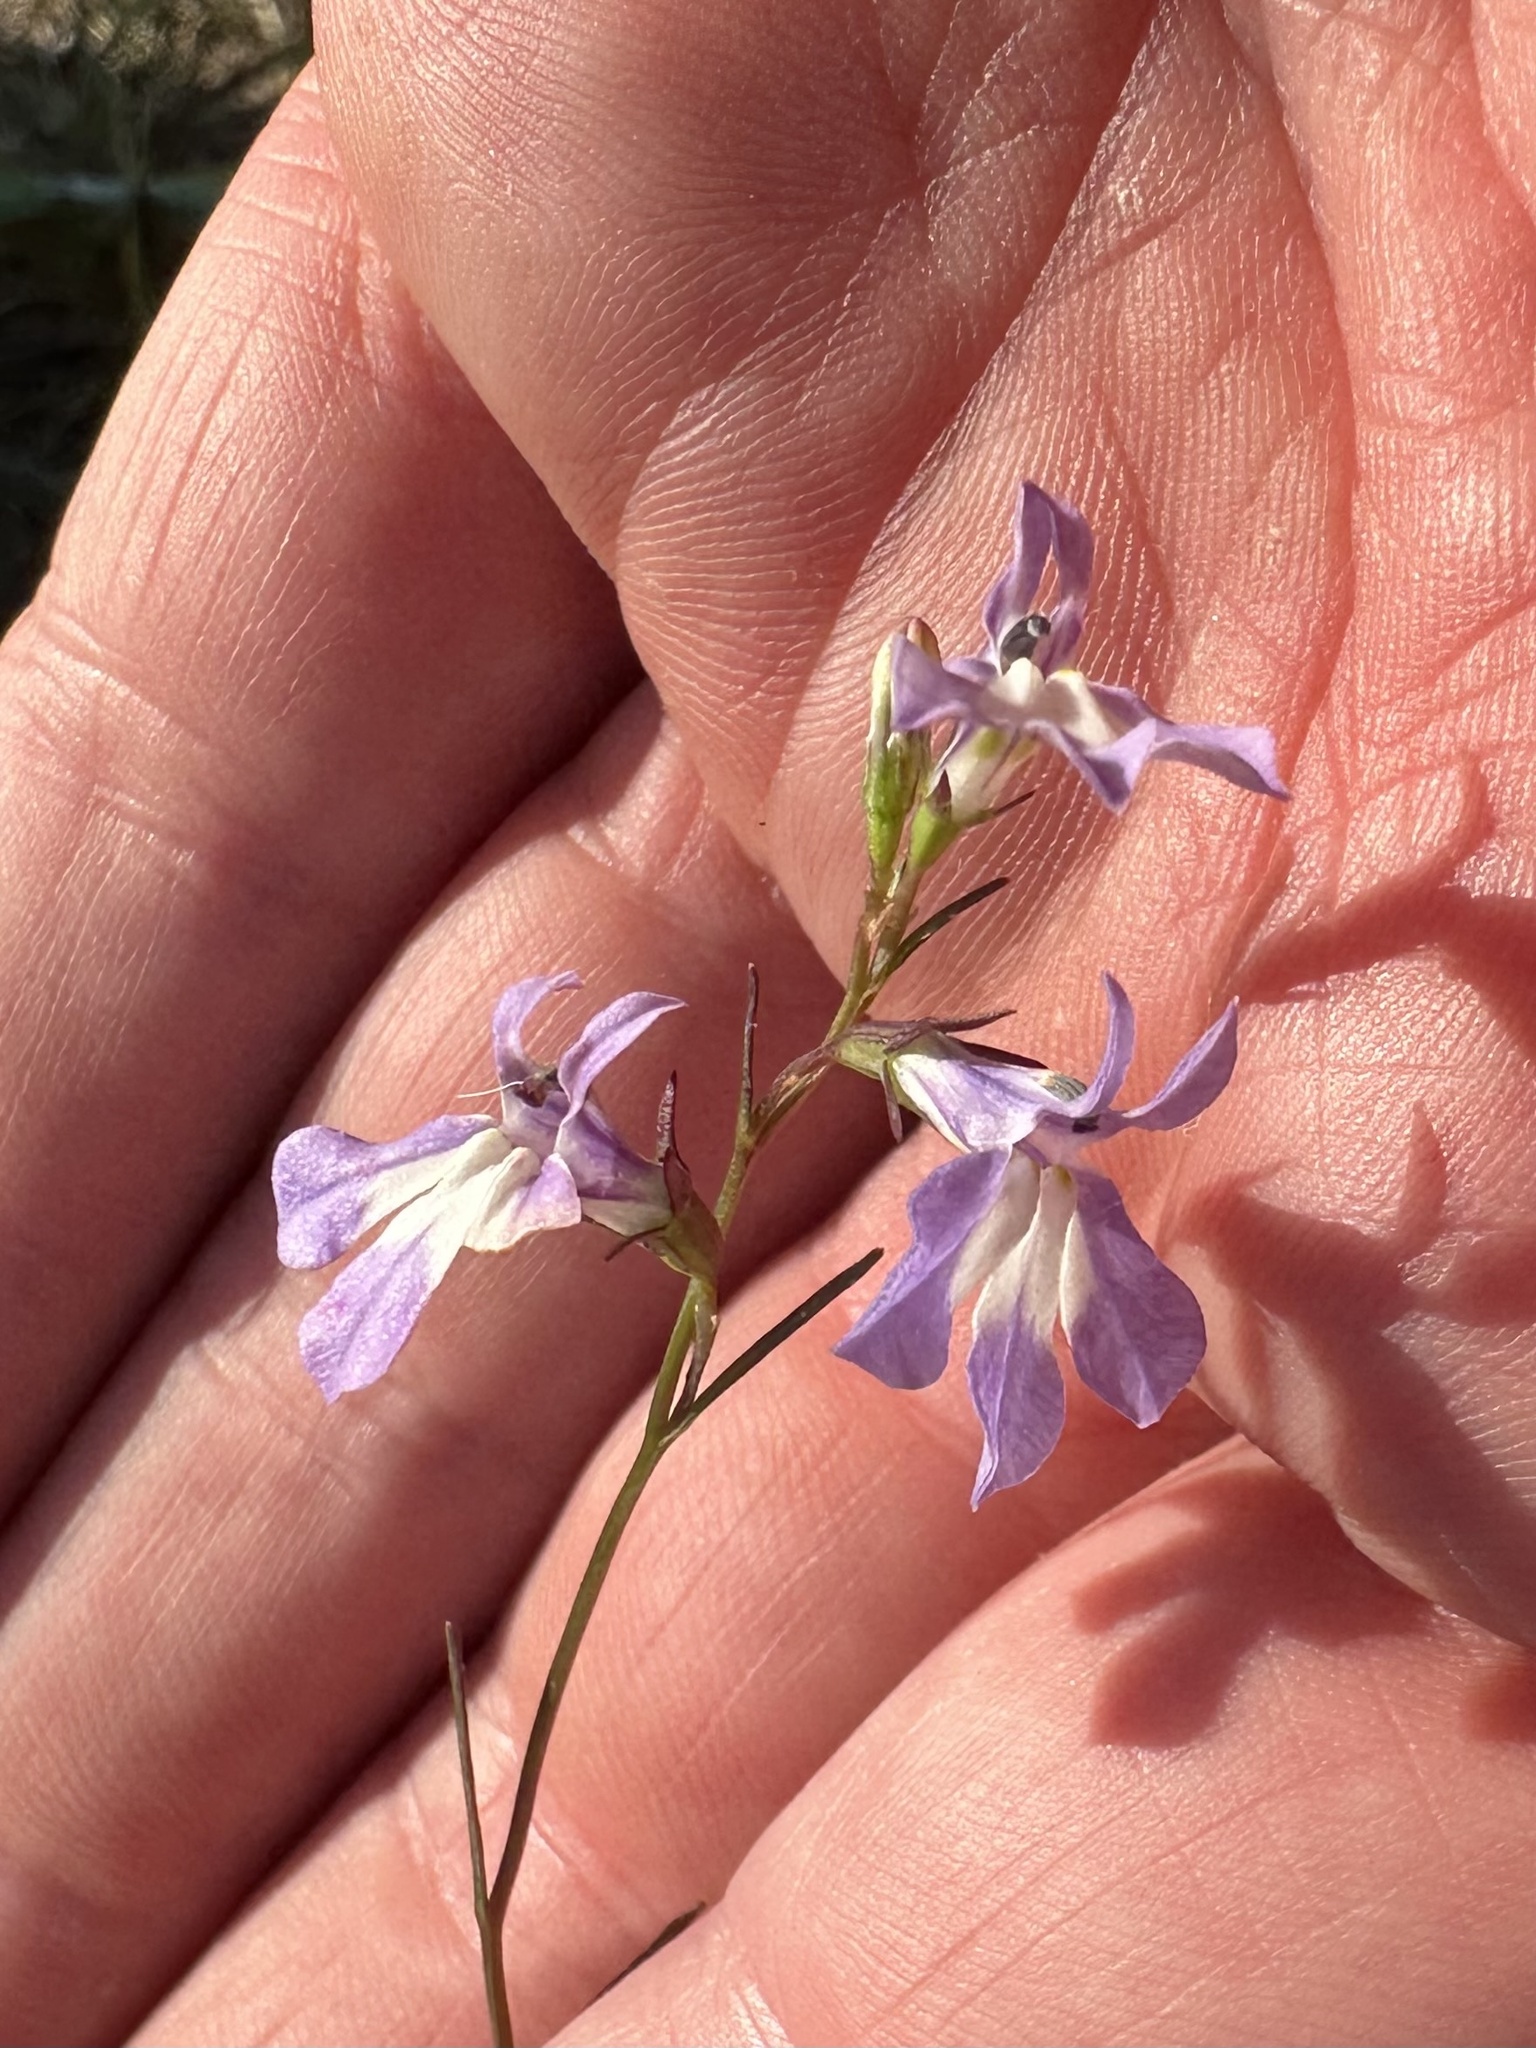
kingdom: Plantae
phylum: Tracheophyta
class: Magnoliopsida
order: Asterales
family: Campanulaceae
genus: Lobelia
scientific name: Lobelia kalmii
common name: Kalm's lobelia
